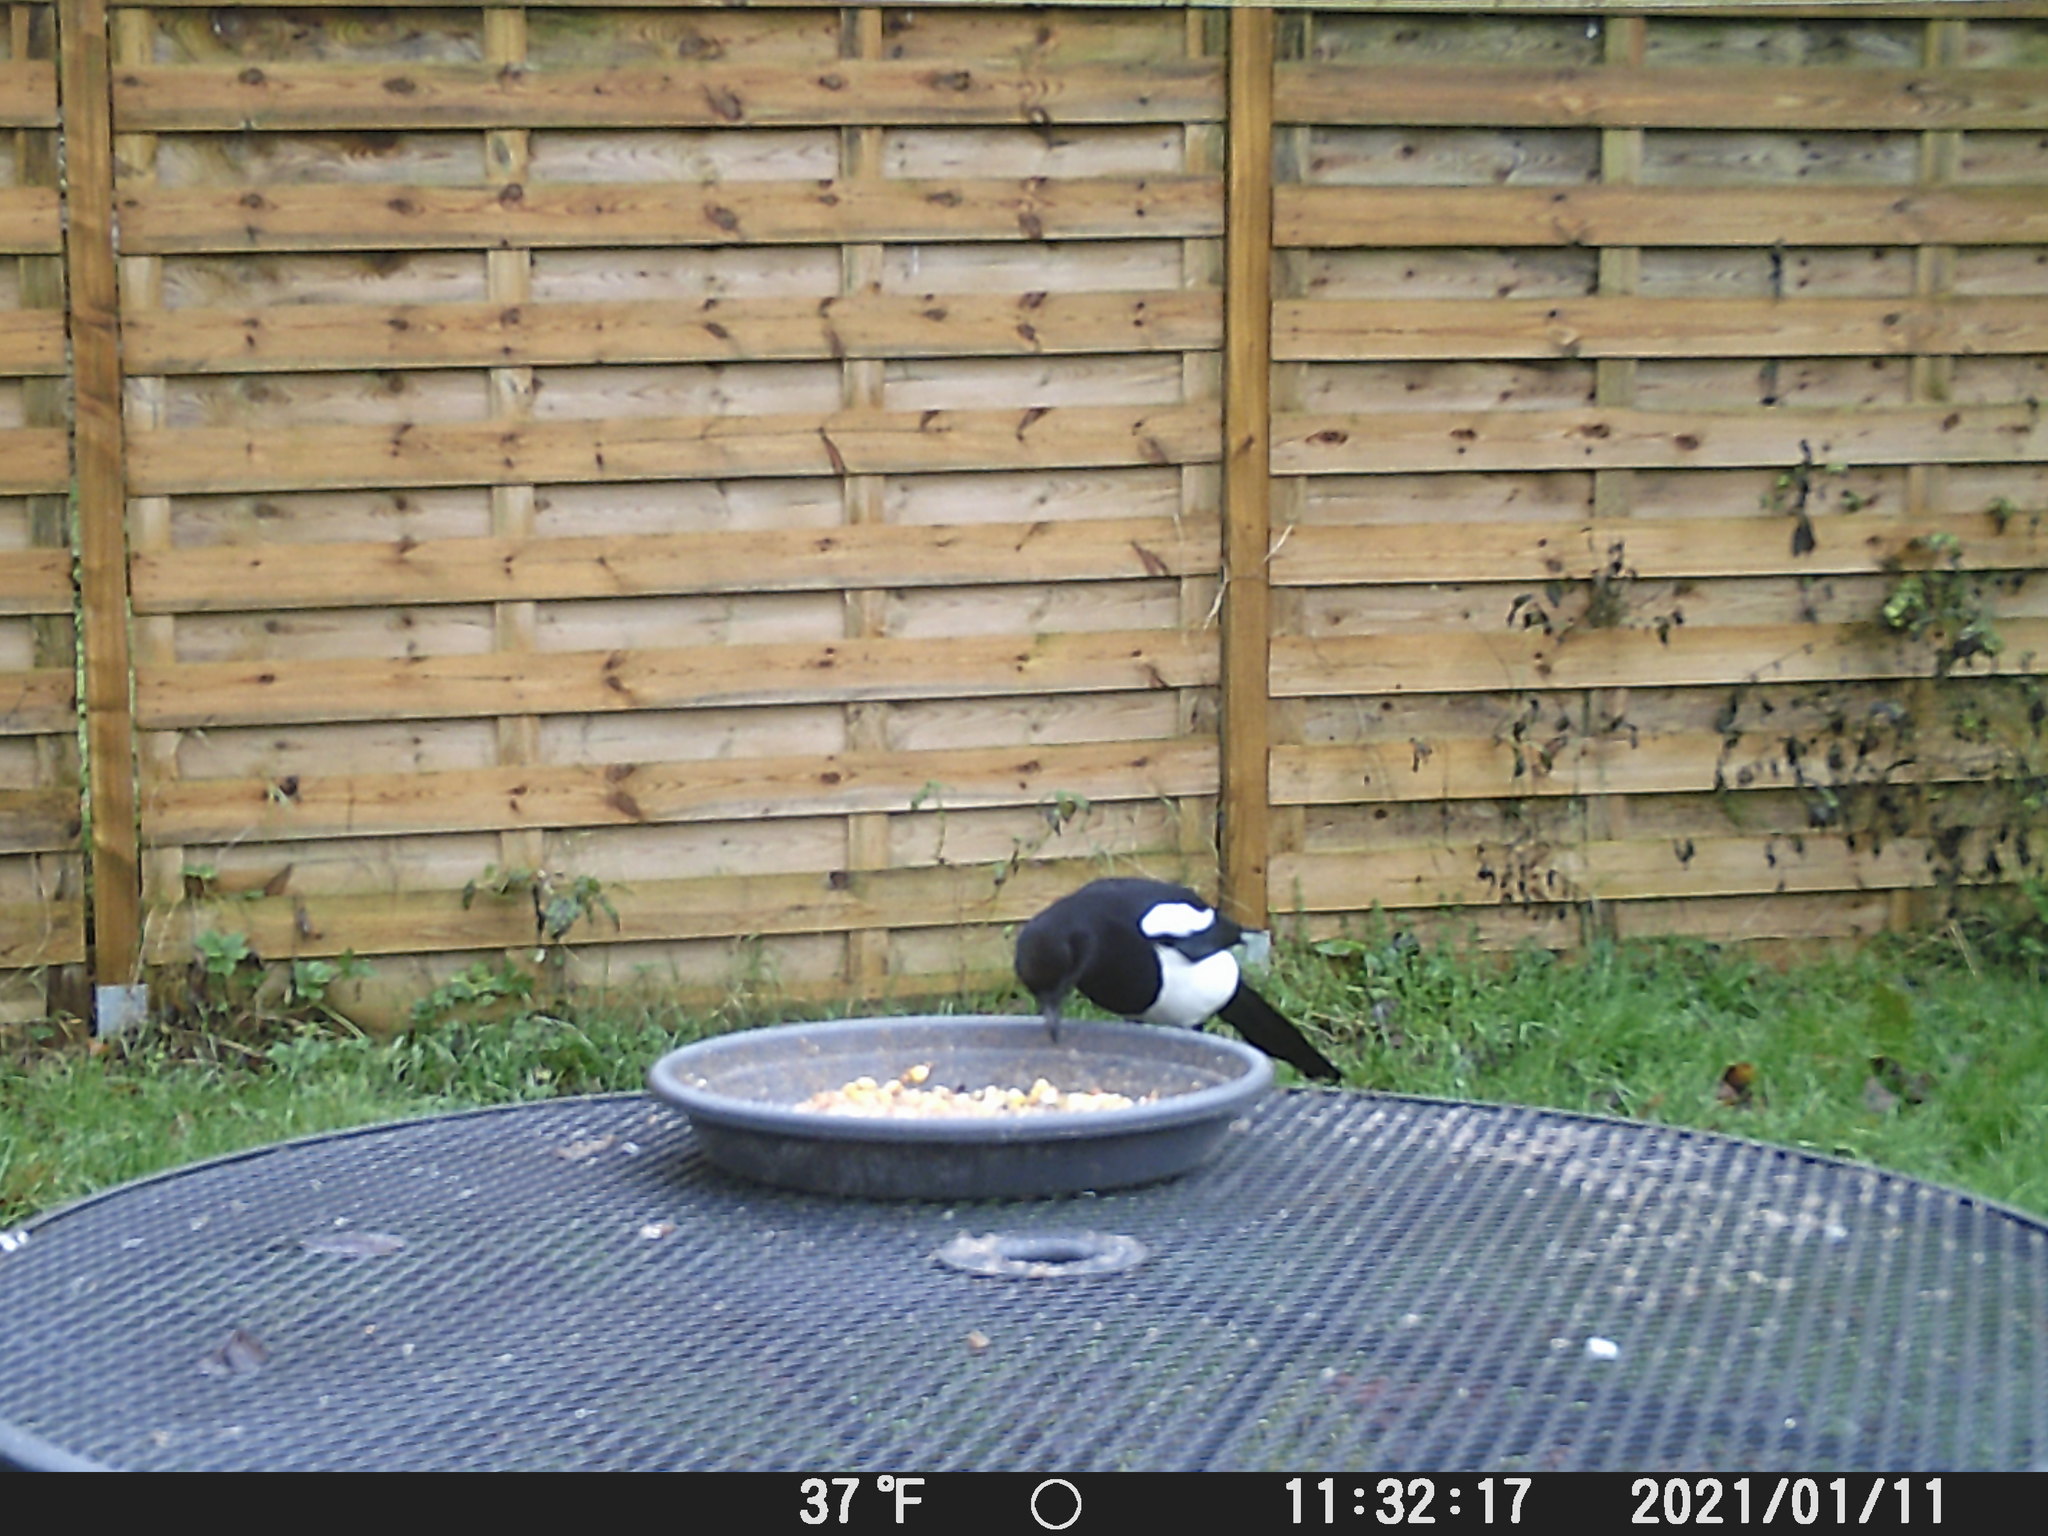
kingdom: Animalia
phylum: Chordata
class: Aves
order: Passeriformes
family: Corvidae
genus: Pica
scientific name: Pica pica
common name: Eurasian magpie
